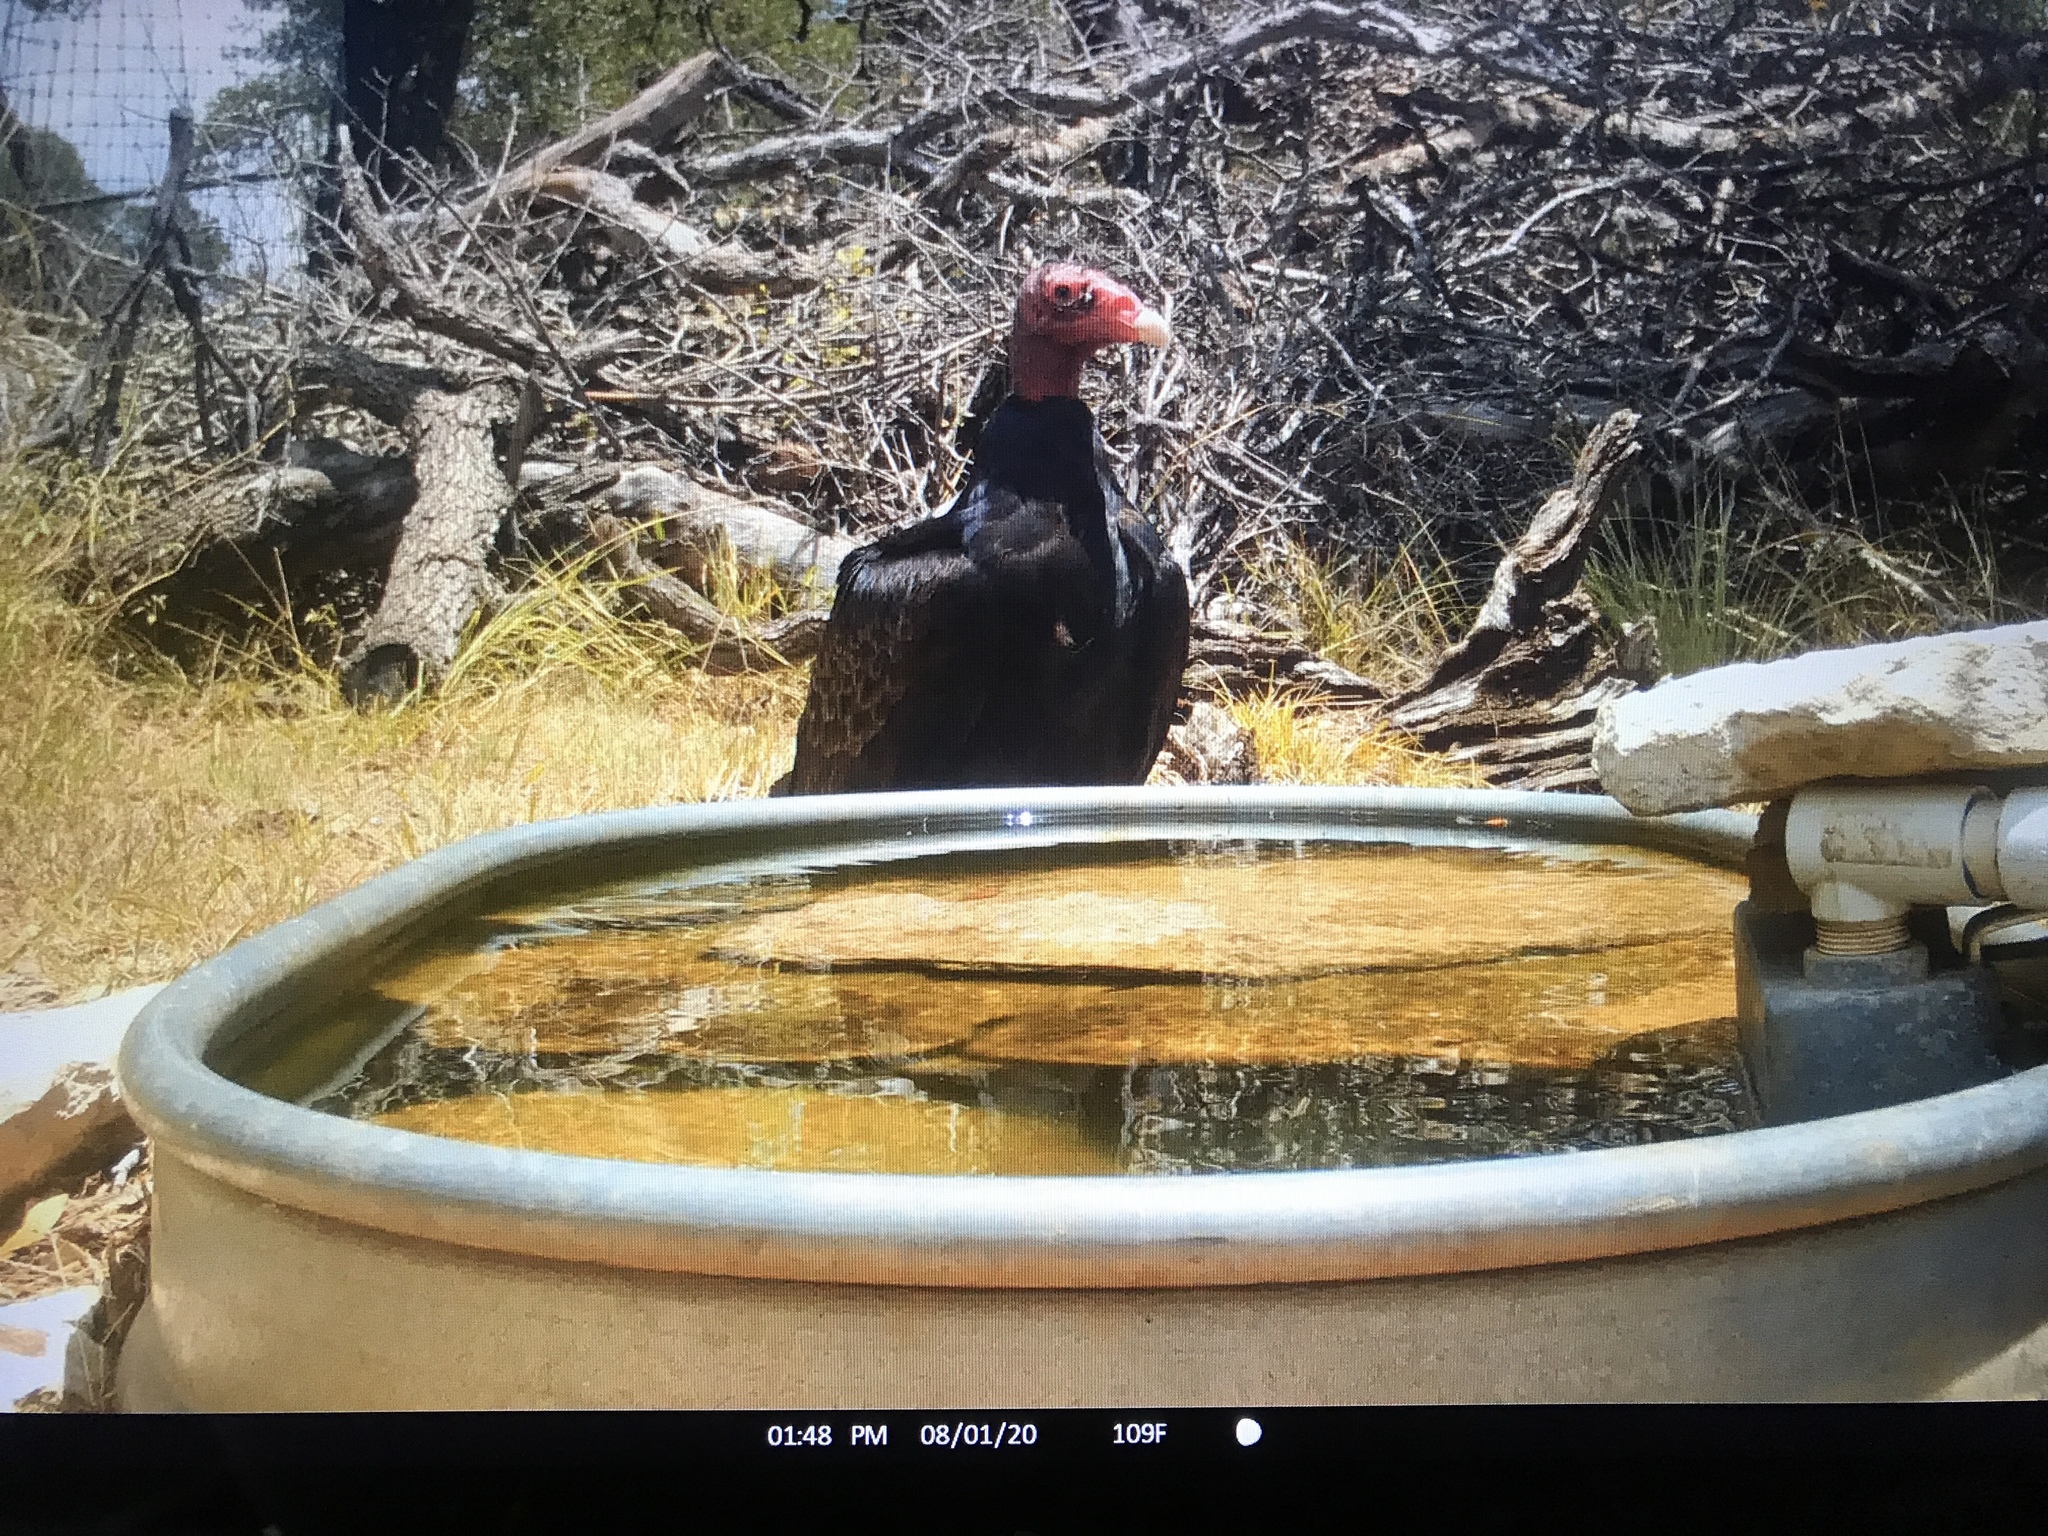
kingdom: Animalia
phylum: Chordata
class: Aves
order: Accipitriformes
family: Cathartidae
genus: Cathartes
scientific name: Cathartes aura
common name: Turkey vulture
